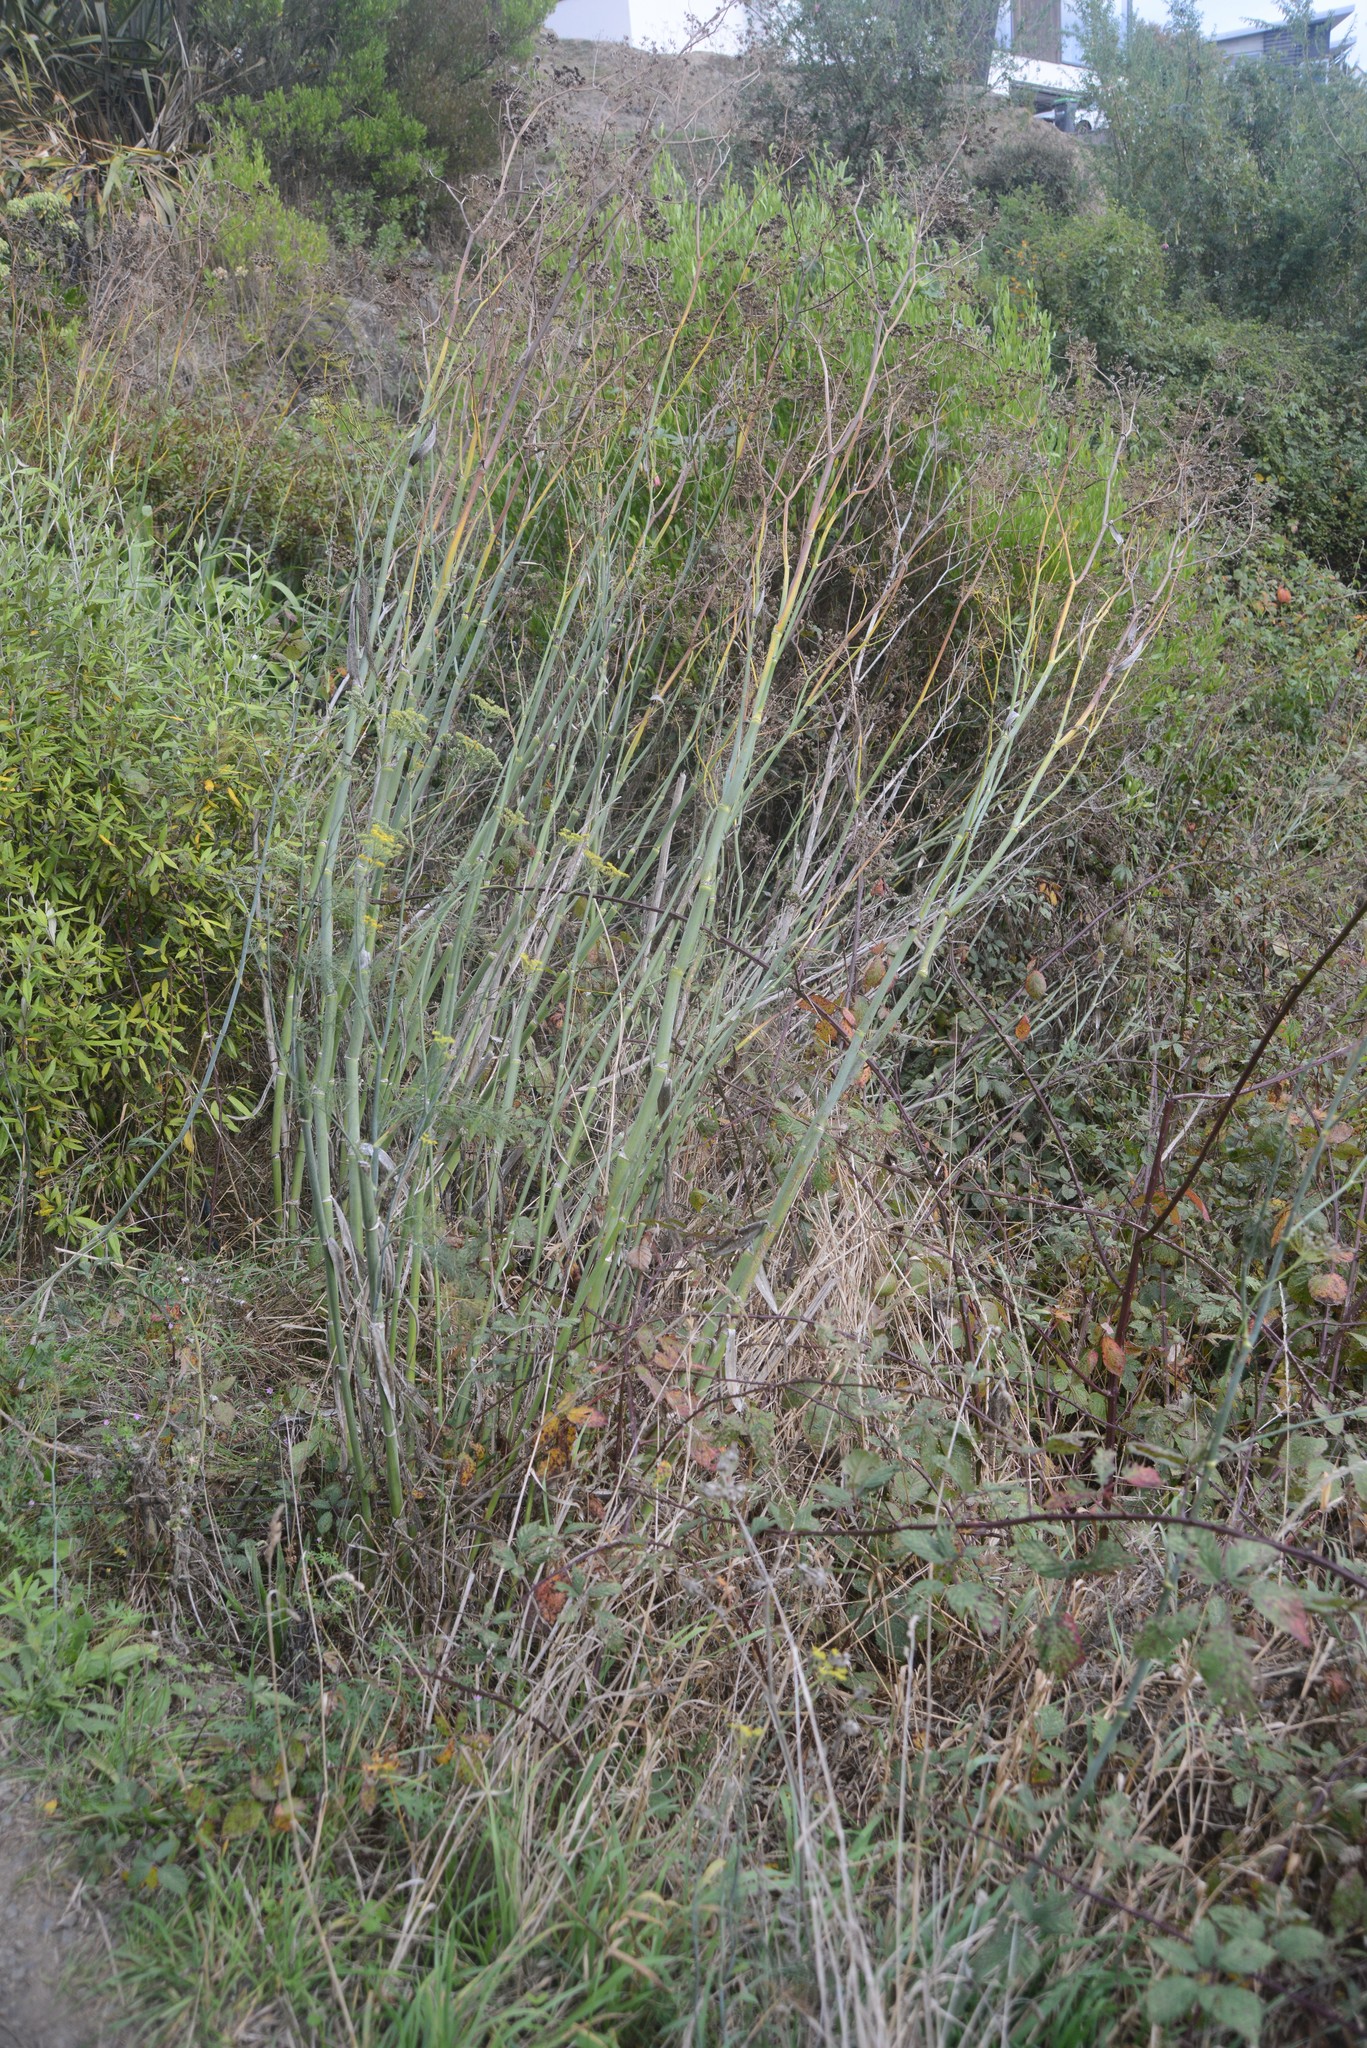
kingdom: Plantae
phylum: Tracheophyta
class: Magnoliopsida
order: Apiales
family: Apiaceae
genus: Foeniculum
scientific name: Foeniculum vulgare
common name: Fennel
